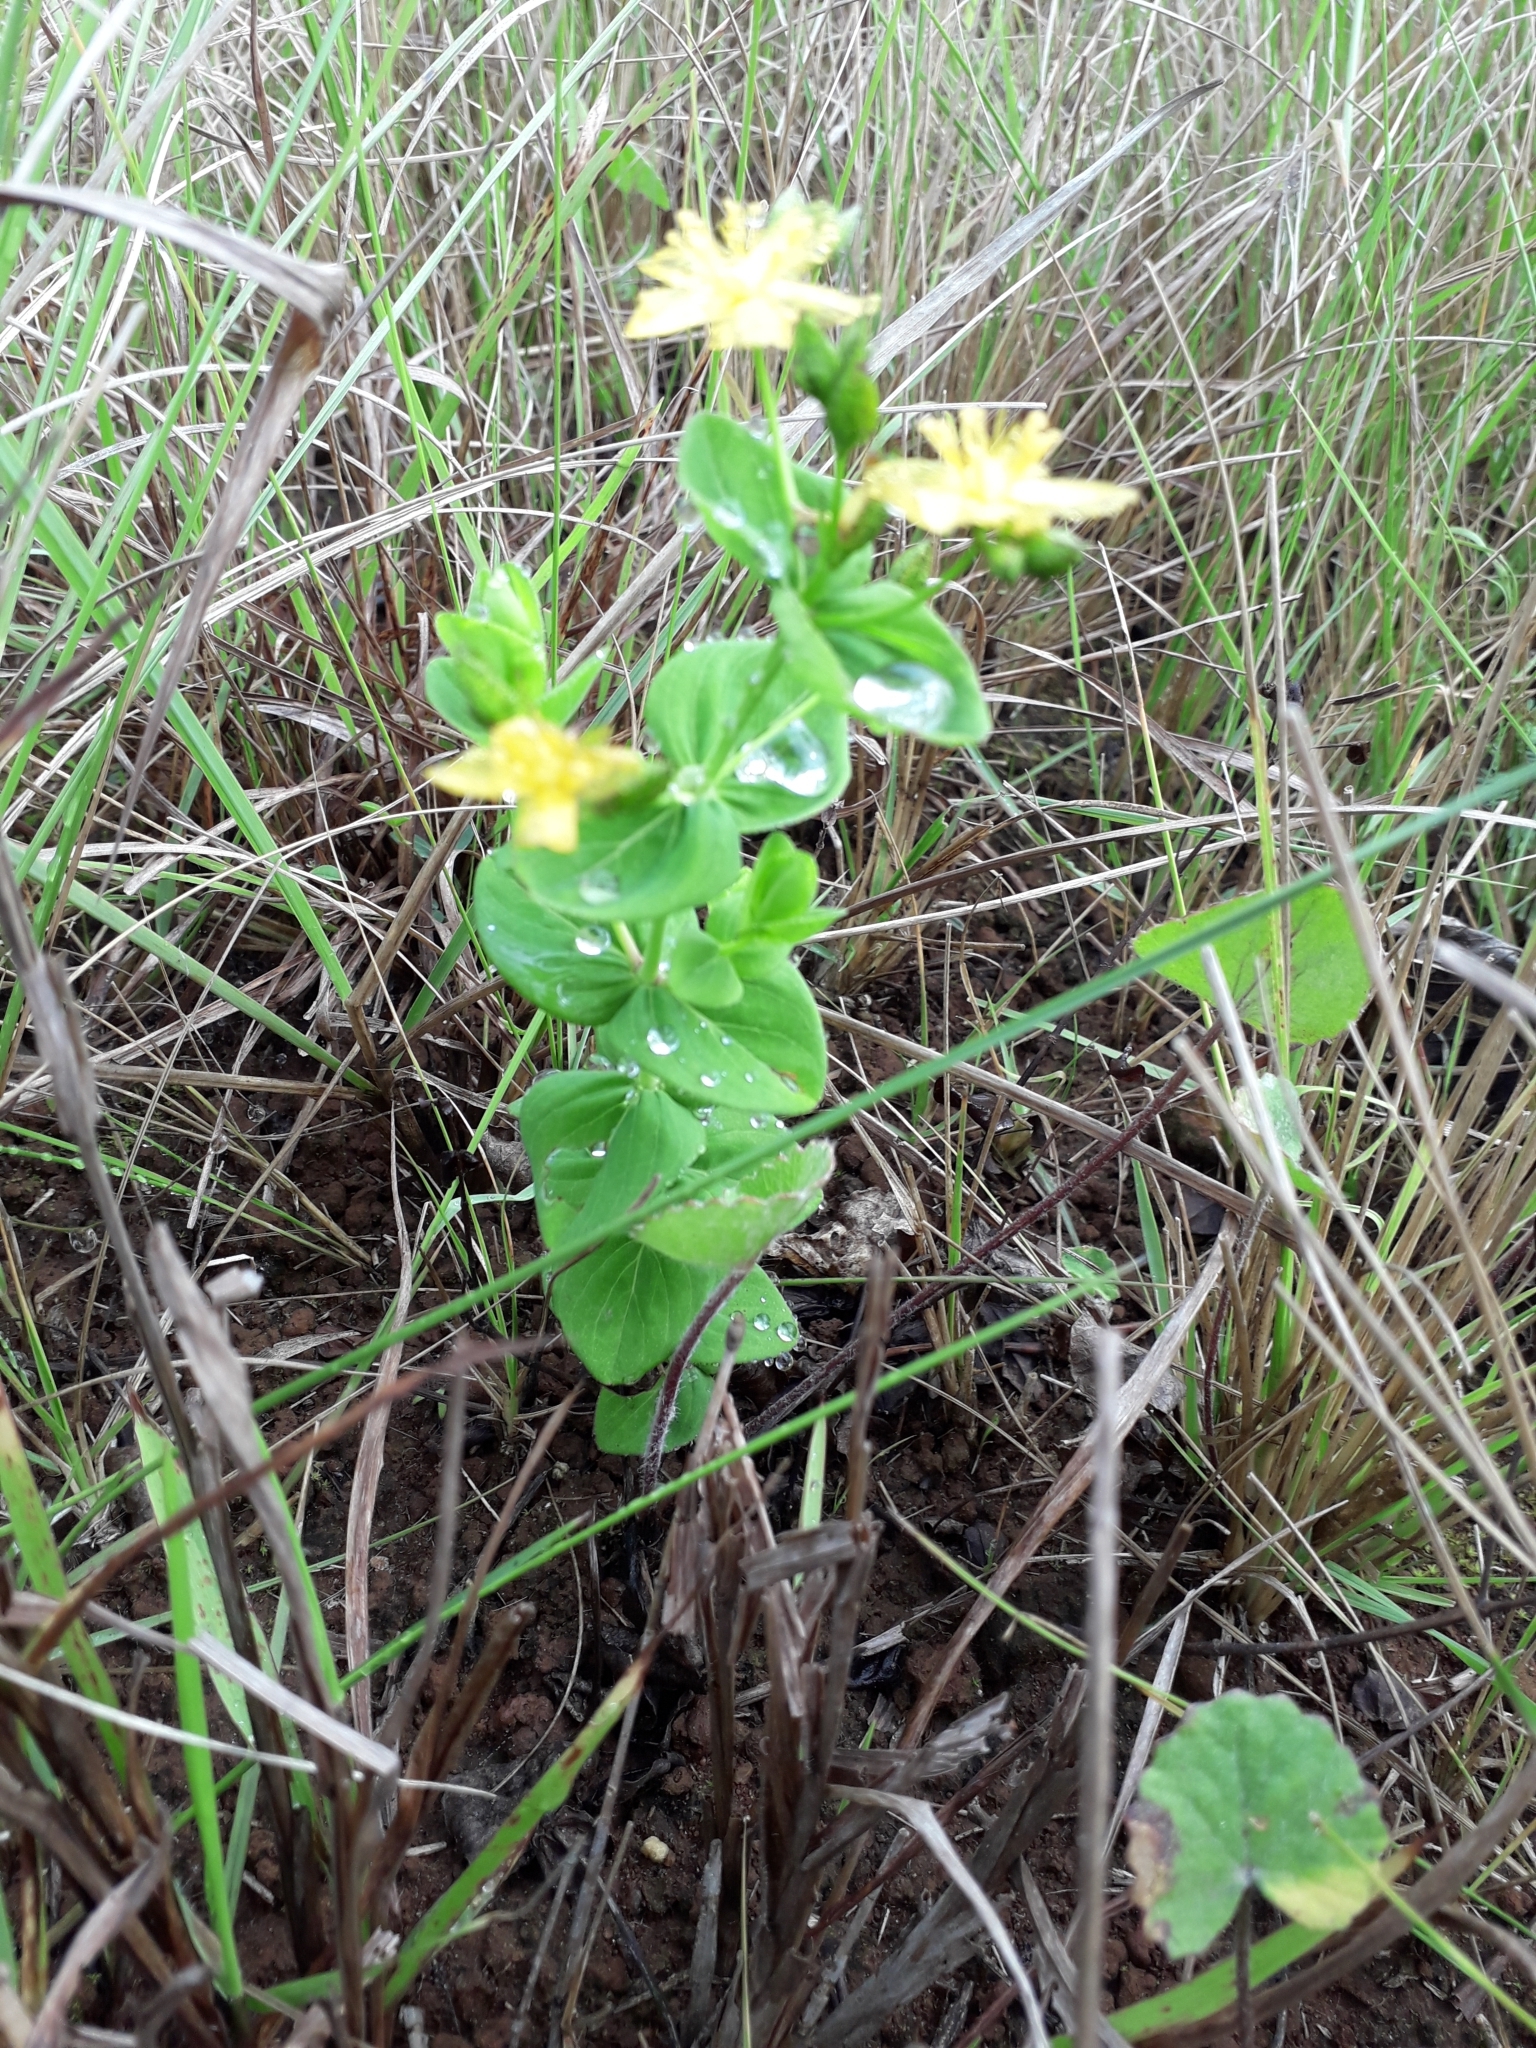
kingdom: Plantae
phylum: Tracheophyta
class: Magnoliopsida
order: Malpighiales
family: Hypericaceae
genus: Hypericum
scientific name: Hypericum aethiopicum
